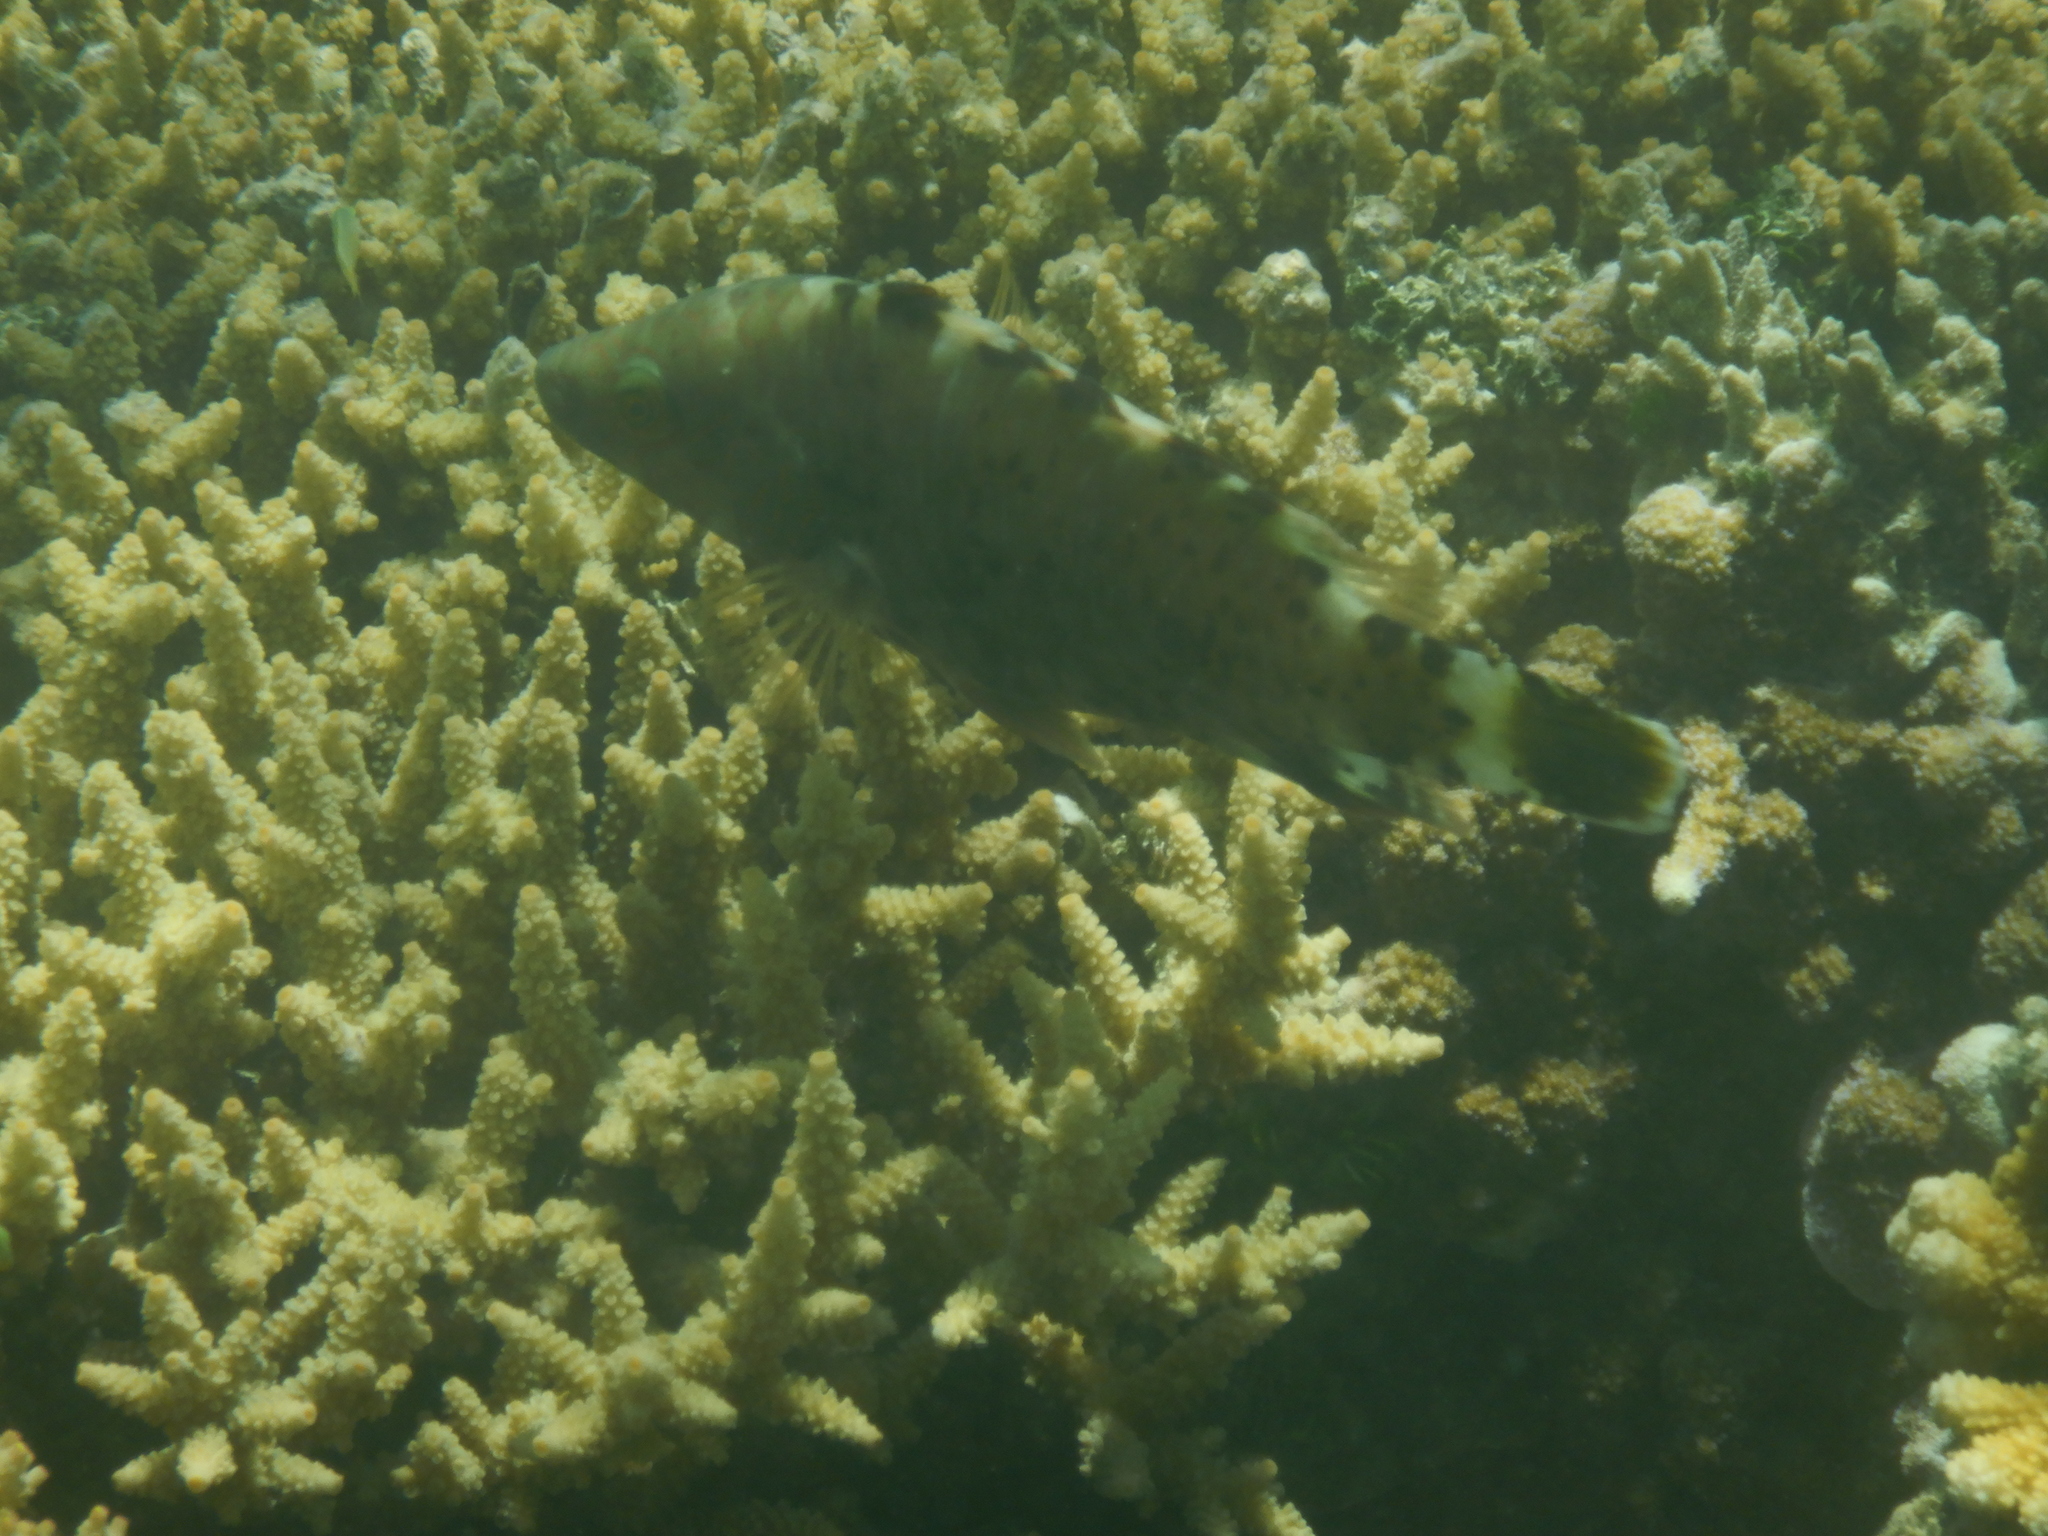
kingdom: Animalia
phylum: Chordata
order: Perciformes
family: Labridae
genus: Cheilinus
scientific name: Cheilinus chlorourus
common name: Floral wrasse
